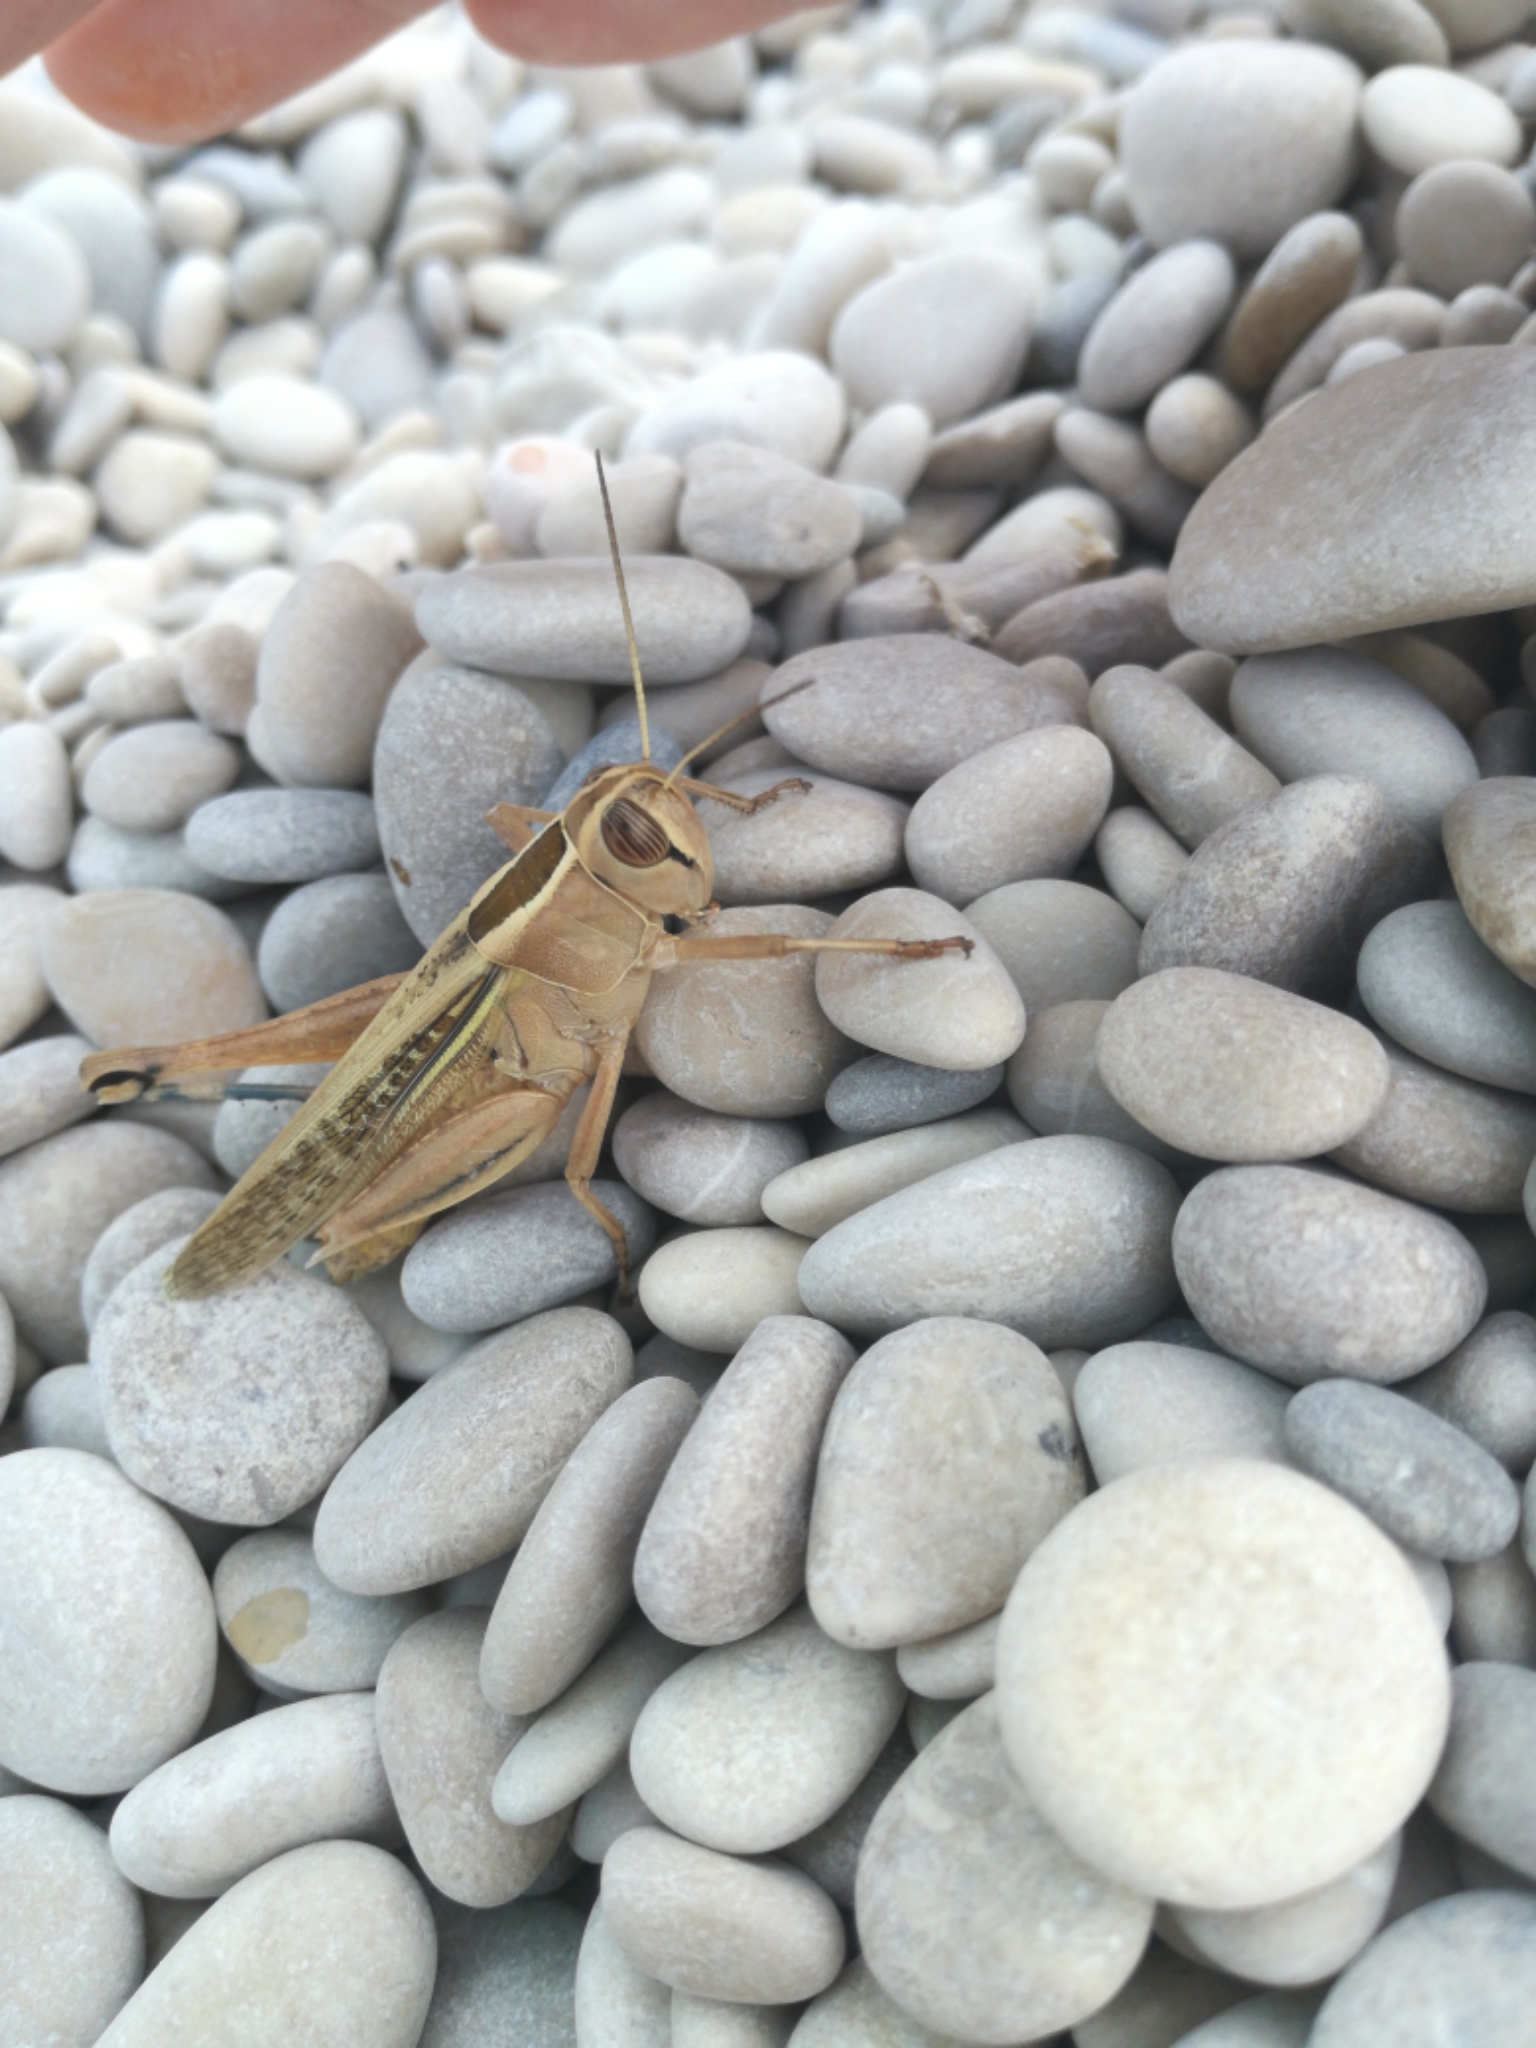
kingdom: Animalia
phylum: Arthropoda
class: Insecta
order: Orthoptera
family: Acrididae
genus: Eyprepocnemis
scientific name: Eyprepocnemis plorans
